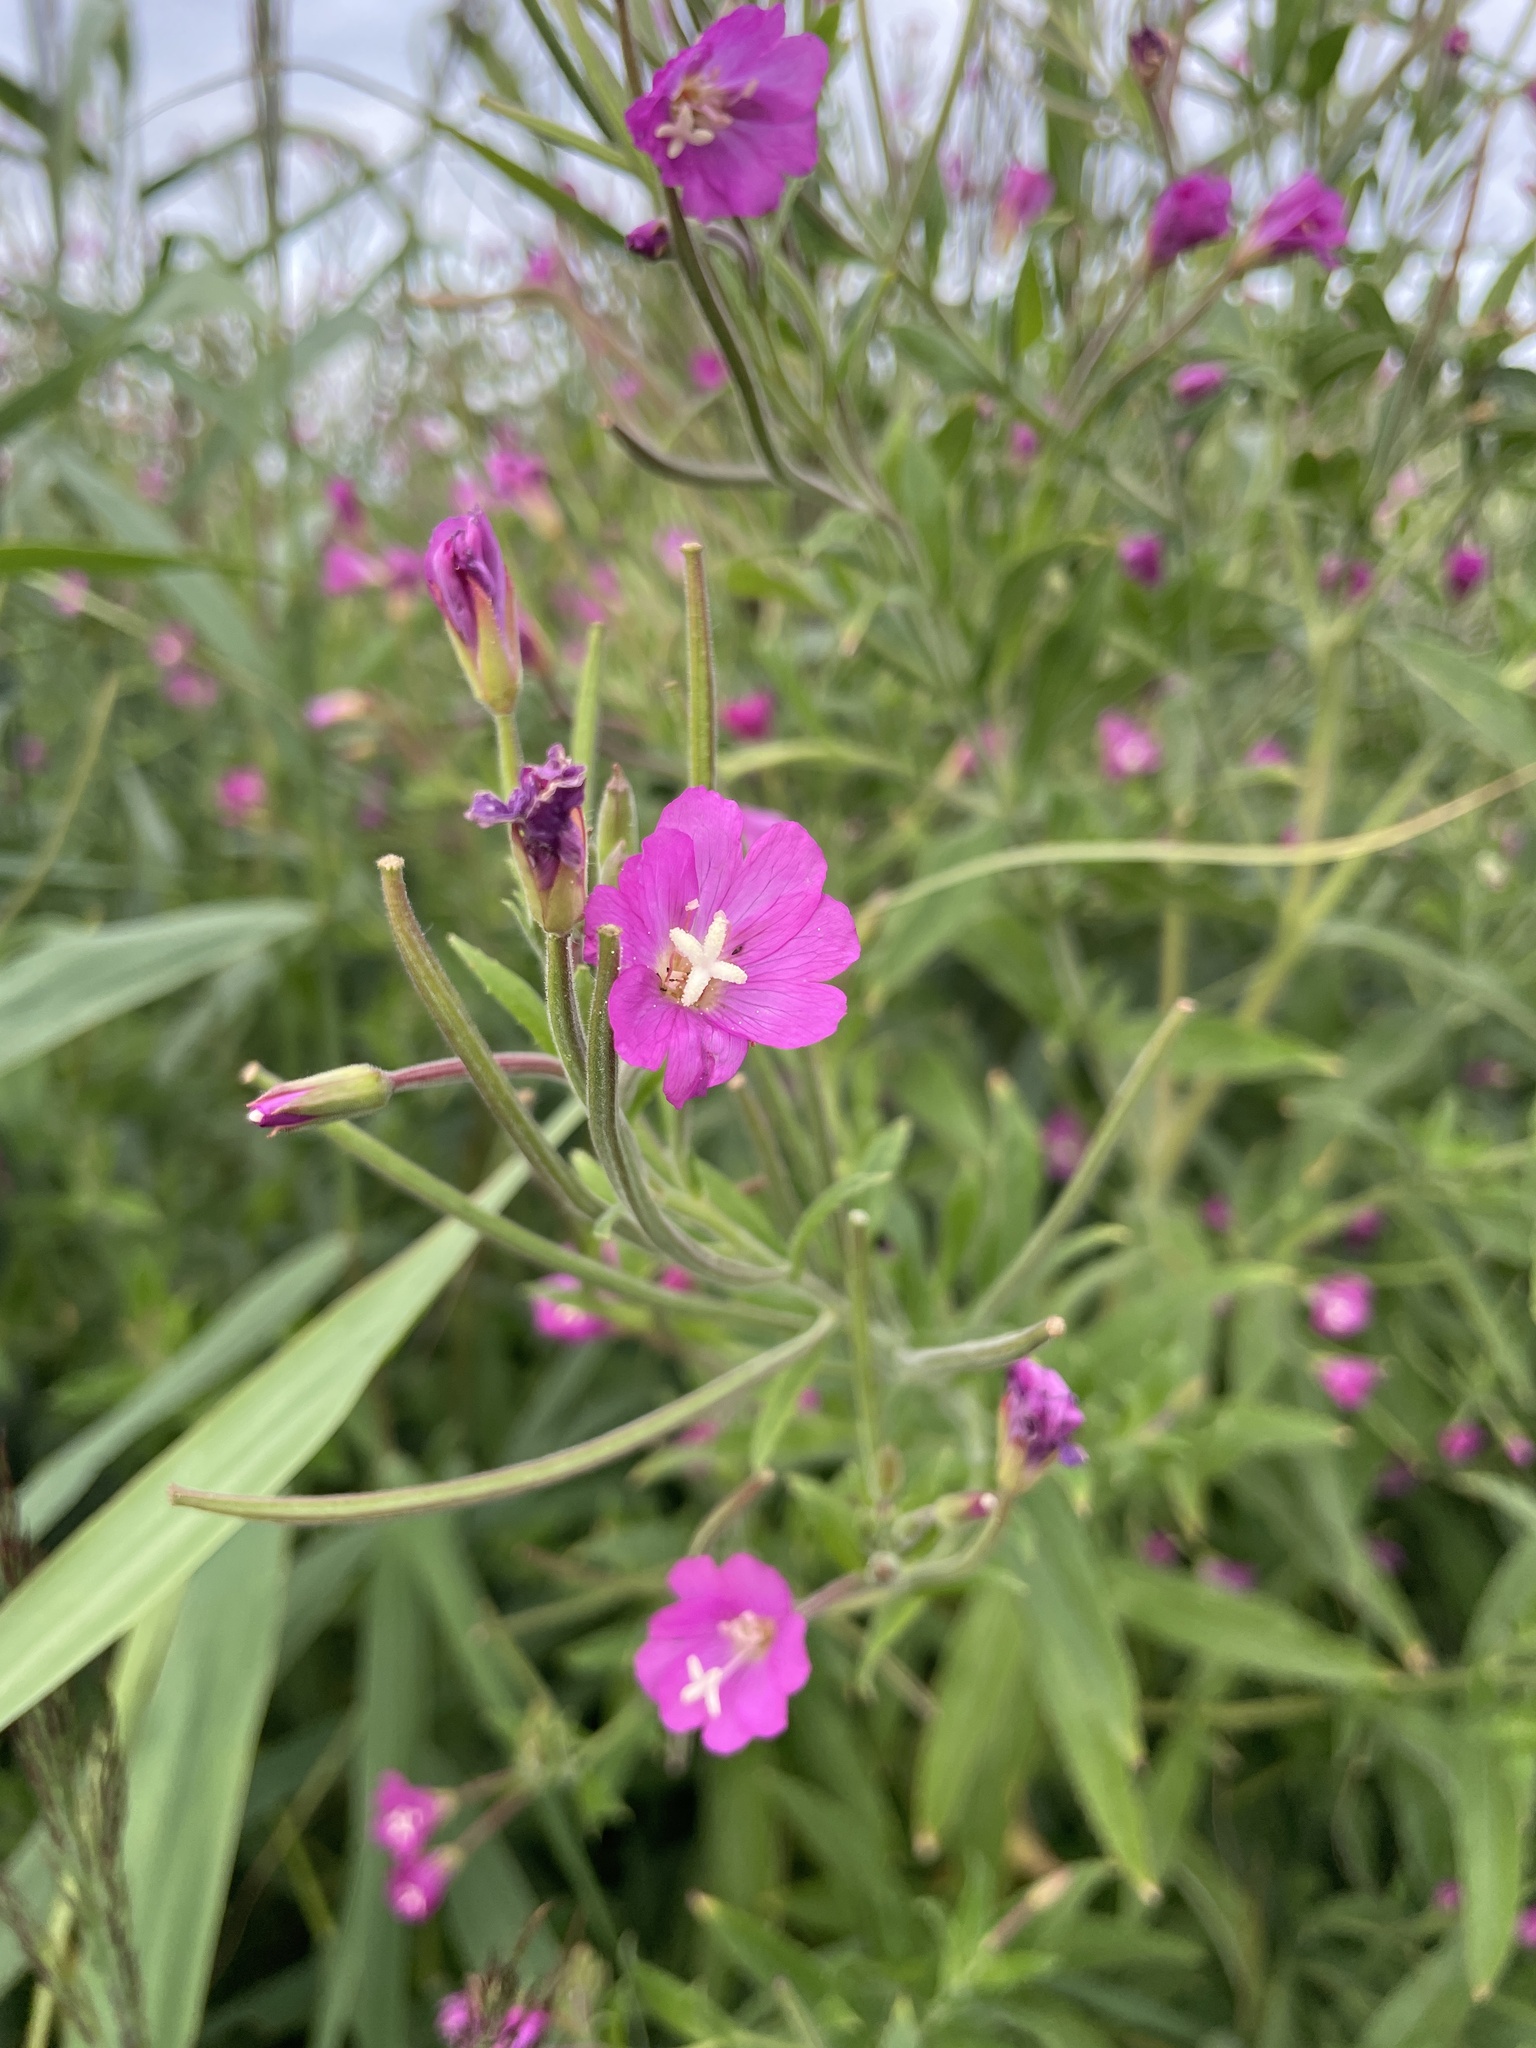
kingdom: Plantae
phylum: Tracheophyta
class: Magnoliopsida
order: Myrtales
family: Onagraceae
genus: Epilobium
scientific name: Epilobium hirsutum
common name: Great willowherb
